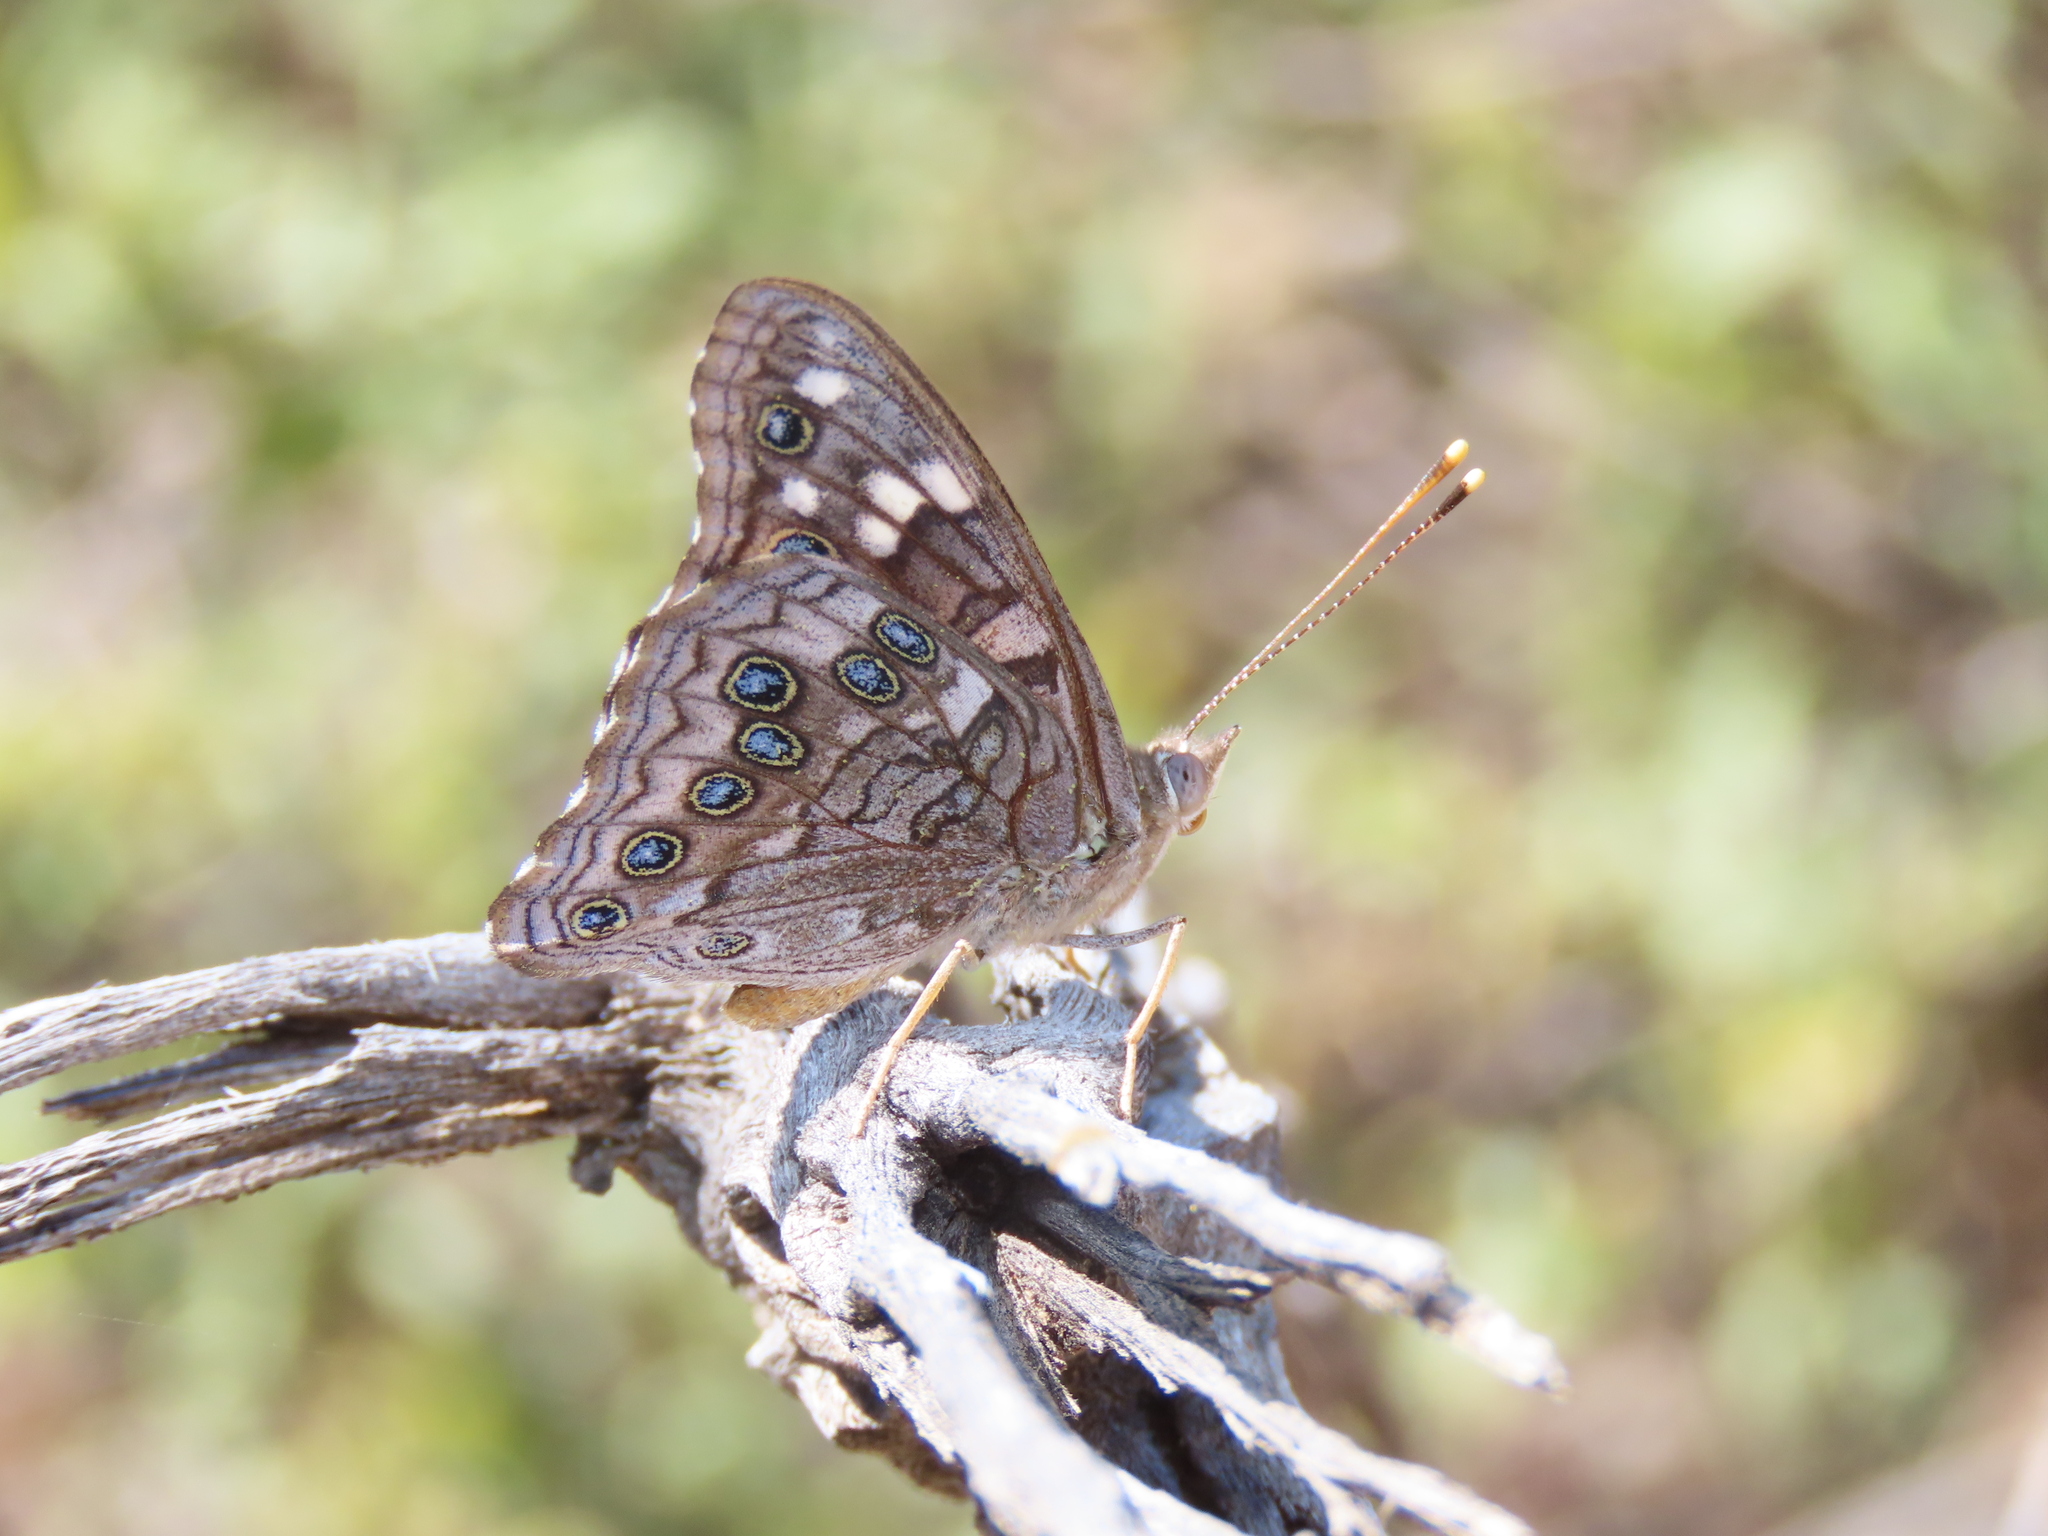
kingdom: Animalia
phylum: Arthropoda
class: Insecta
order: Lepidoptera
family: Nymphalidae
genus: Asterocampa
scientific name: Asterocampa leilia
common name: Empress leilia
